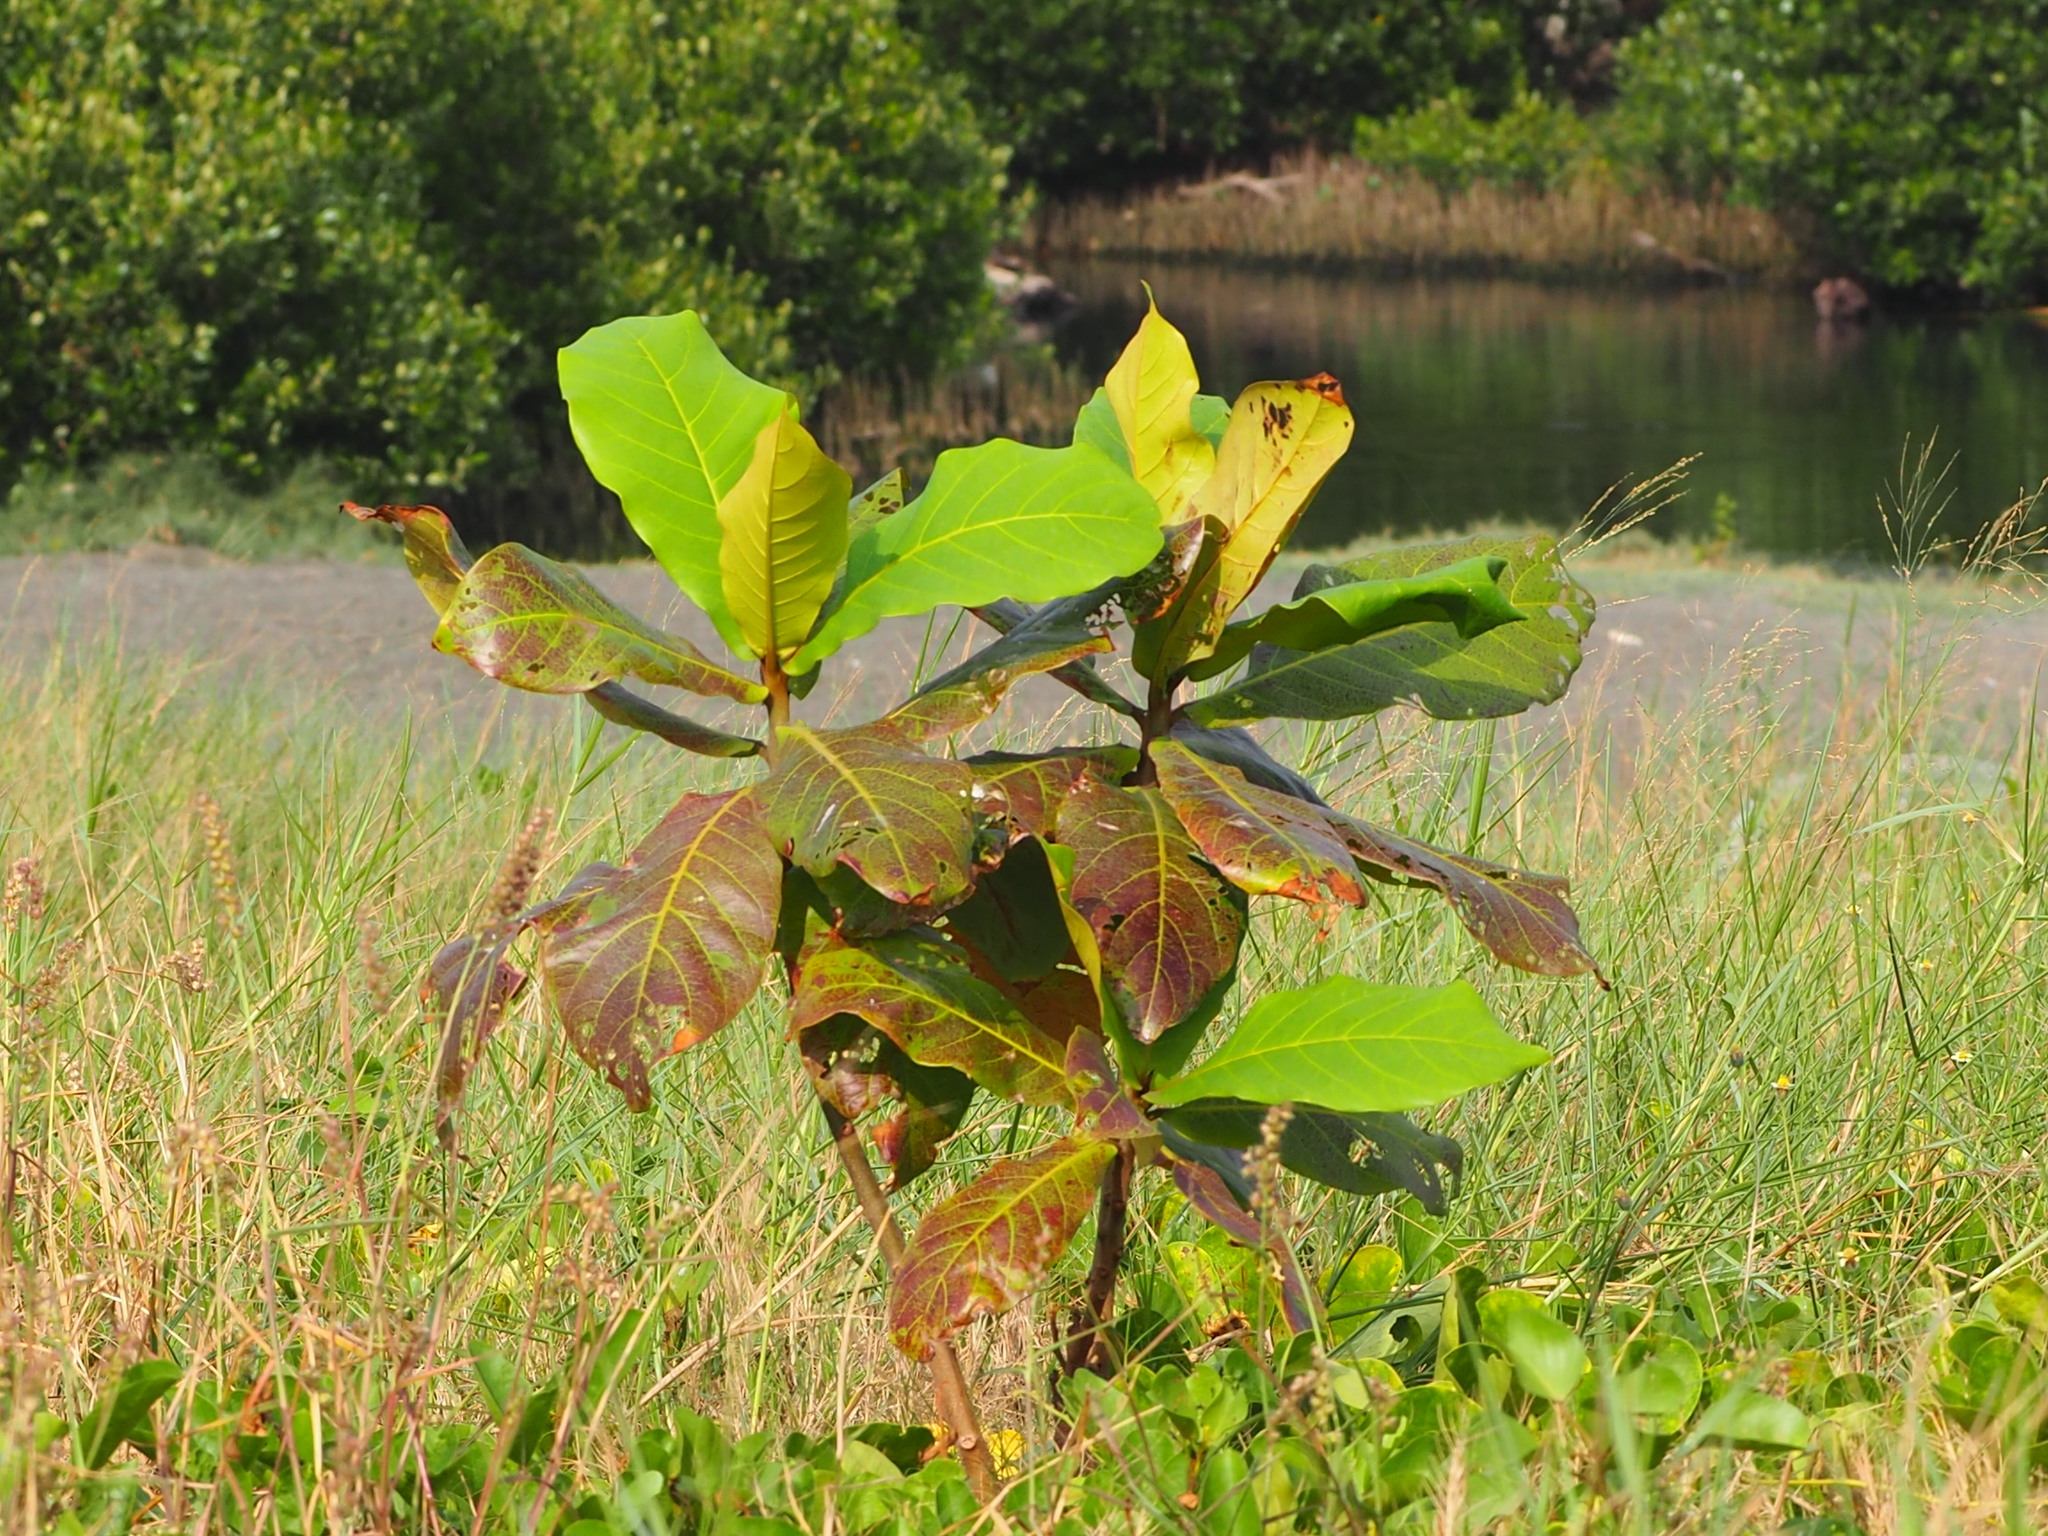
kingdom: Plantae
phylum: Tracheophyta
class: Magnoliopsida
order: Myrtales
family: Combretaceae
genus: Terminalia
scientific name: Terminalia catappa
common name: Tropical almond
